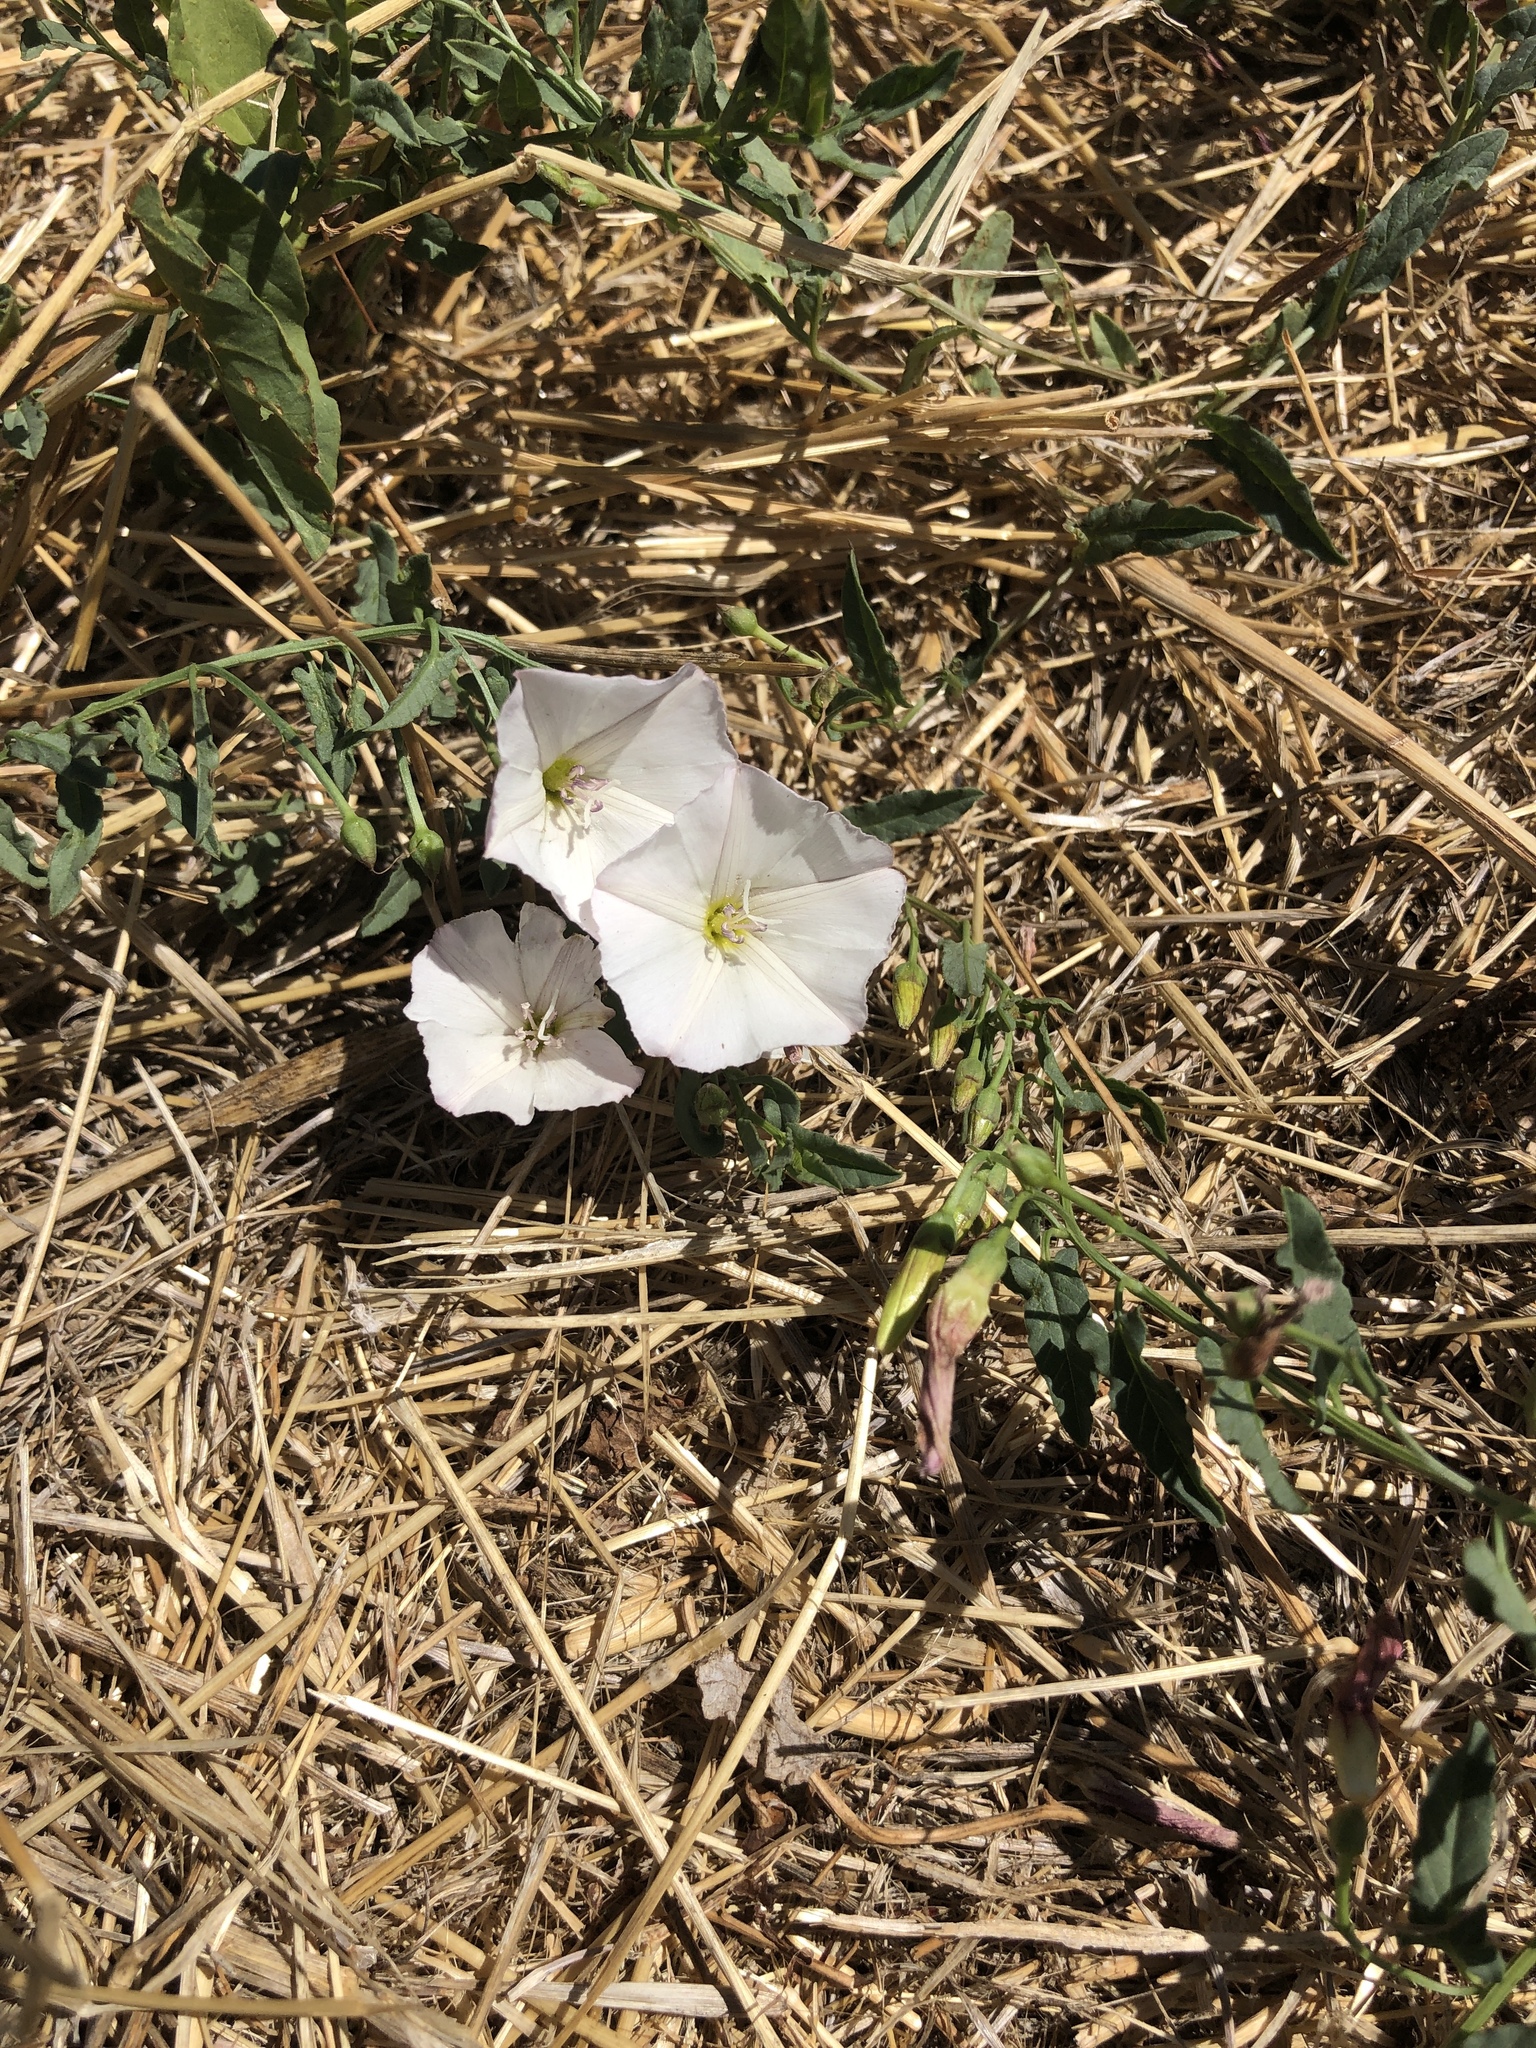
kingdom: Plantae
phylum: Tracheophyta
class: Magnoliopsida
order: Solanales
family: Convolvulaceae
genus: Convolvulus
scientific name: Convolvulus arvensis
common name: Field bindweed
